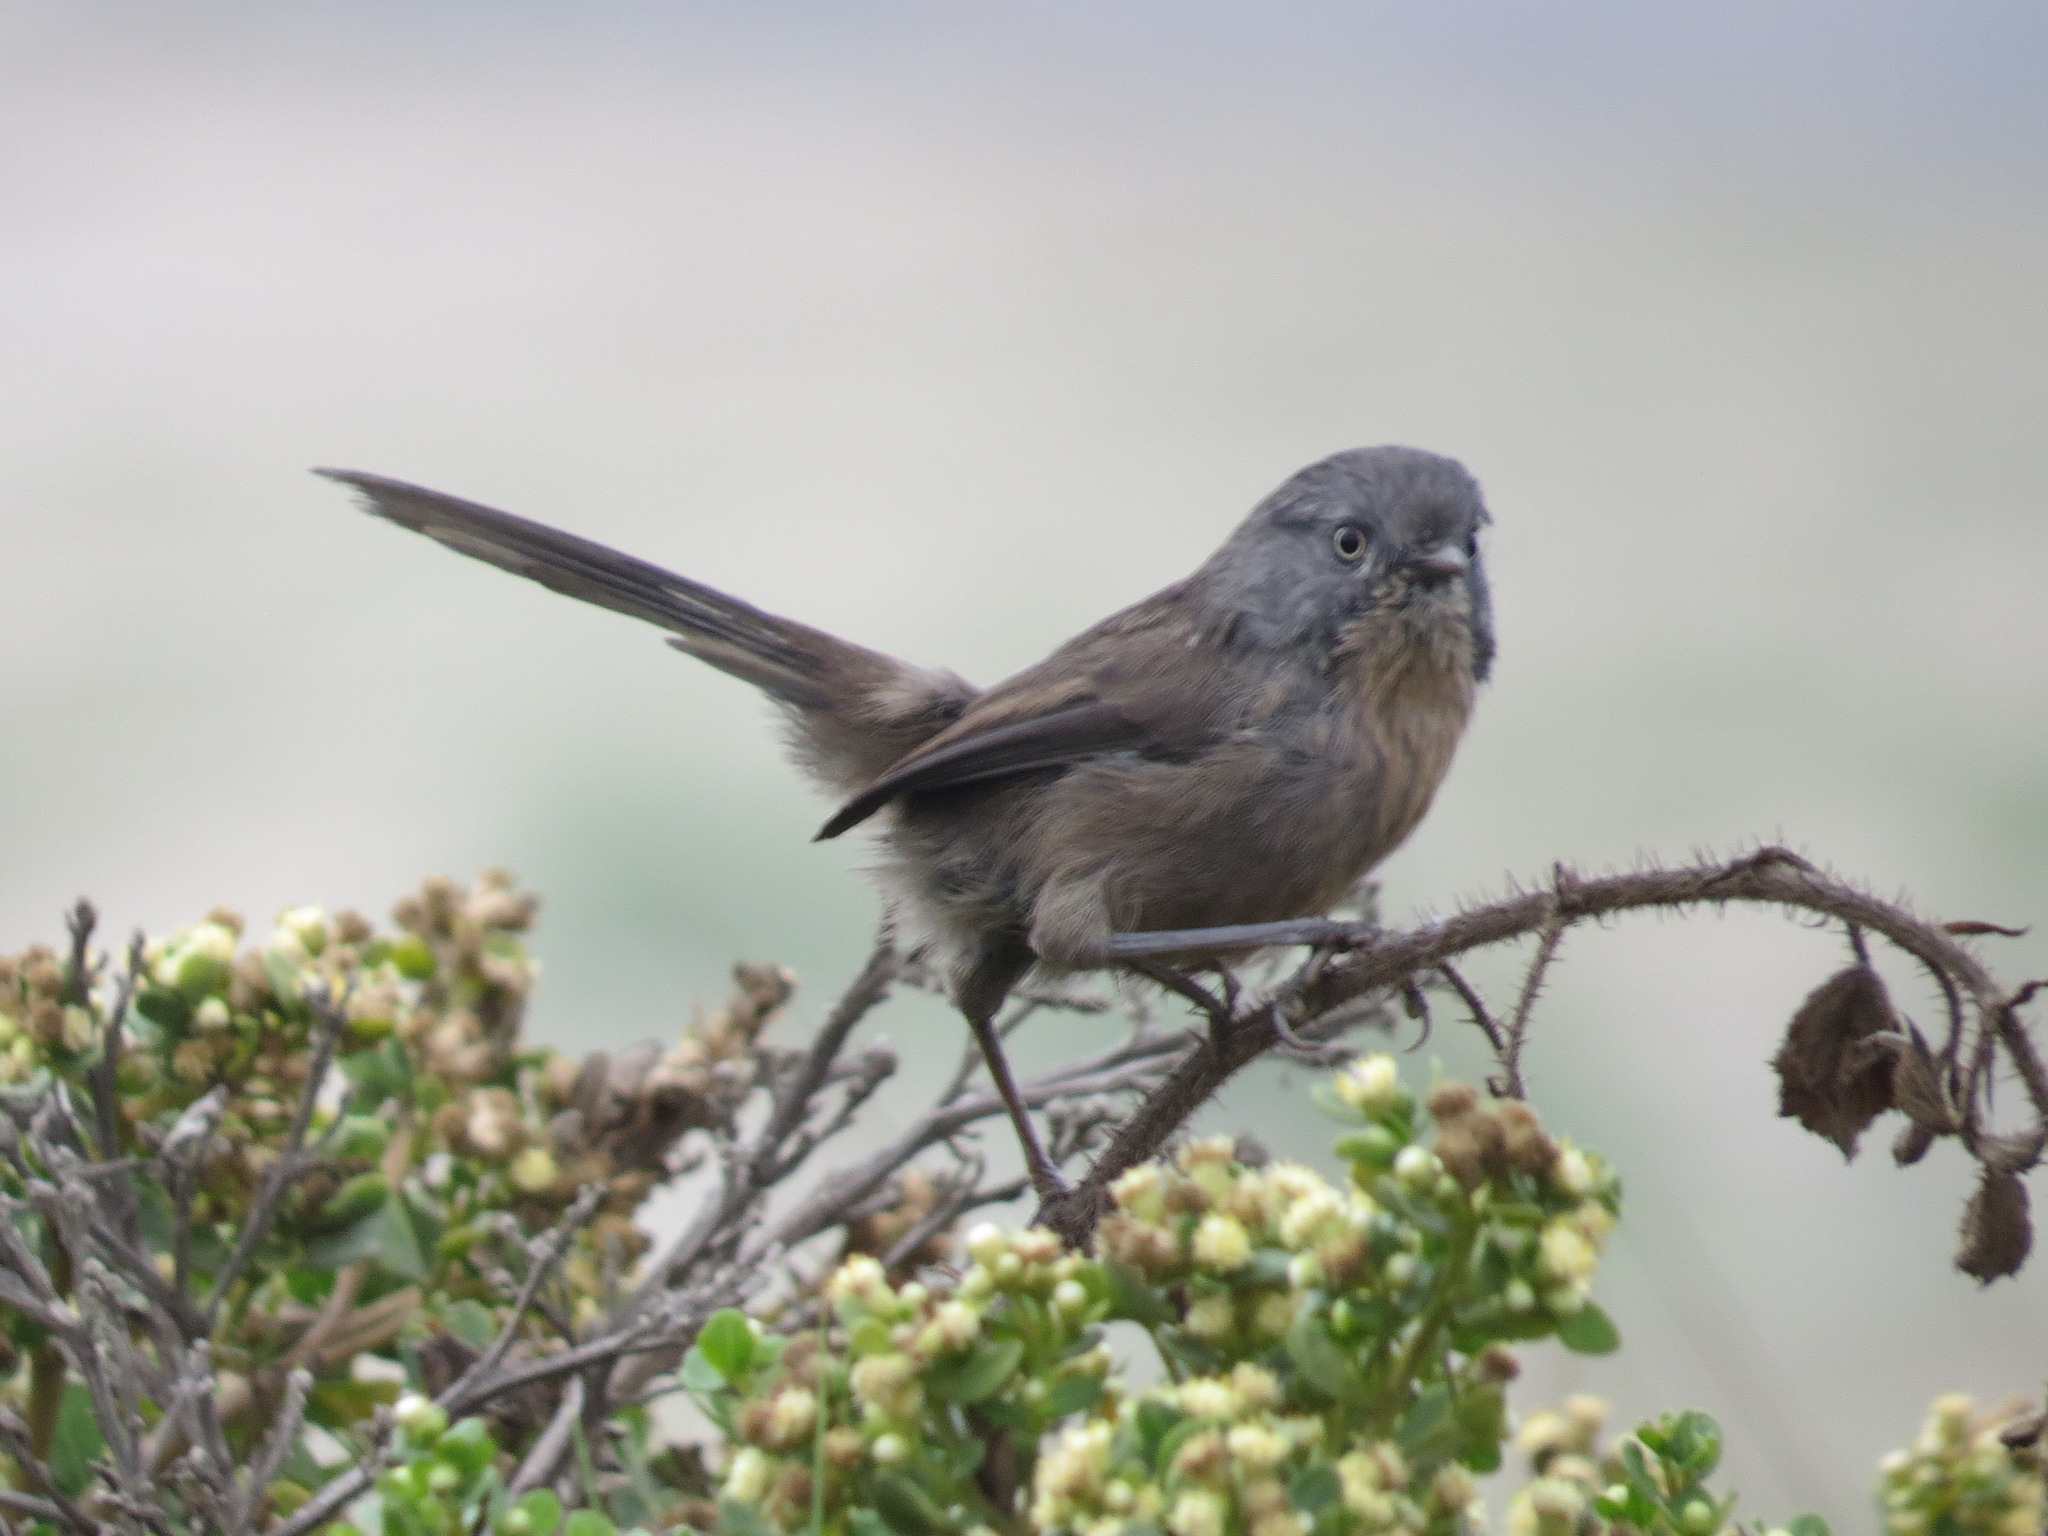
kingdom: Animalia
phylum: Chordata
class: Aves
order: Passeriformes
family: Sylviidae
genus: Chamaea
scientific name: Chamaea fasciata
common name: Wrentit
